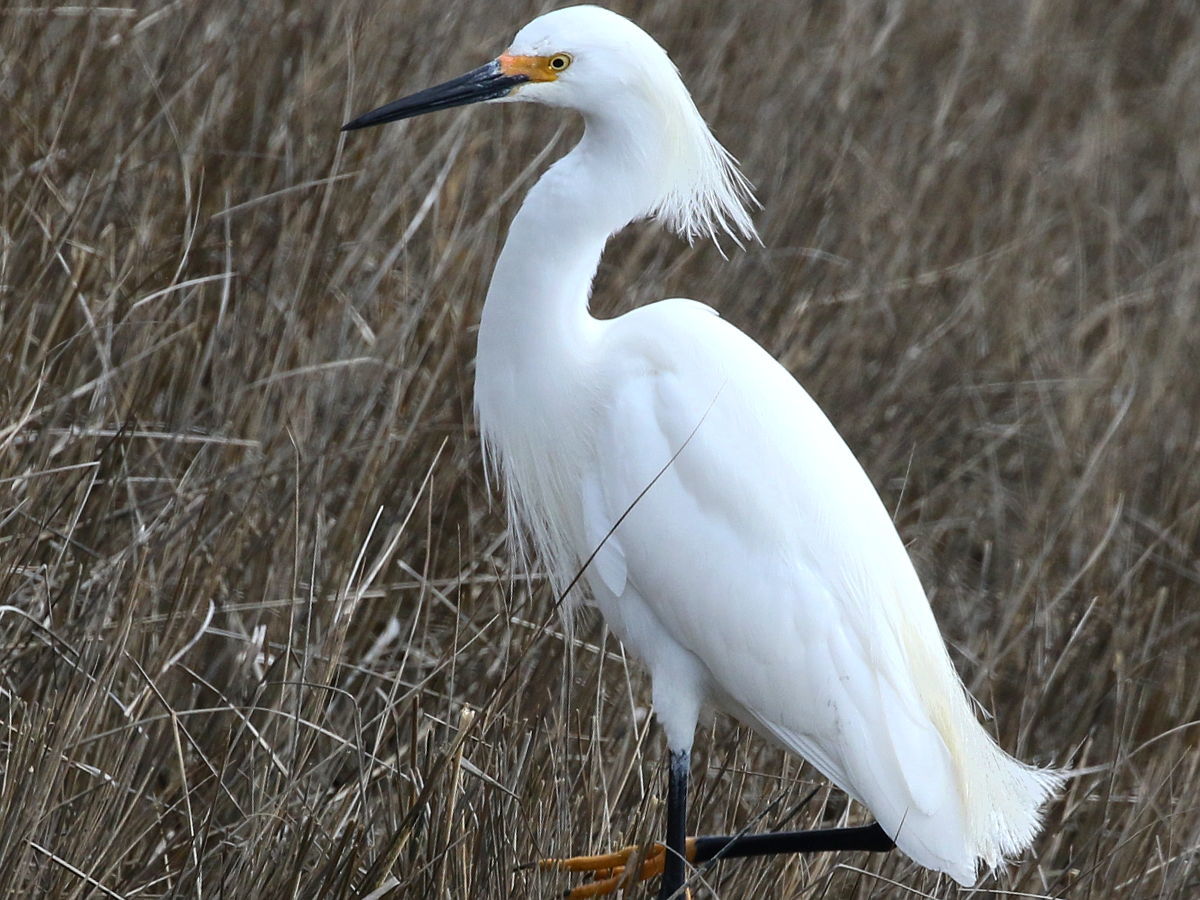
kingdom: Animalia
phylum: Chordata
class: Aves
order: Pelecaniformes
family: Ardeidae
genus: Egretta
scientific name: Egretta thula
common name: Snowy egret
